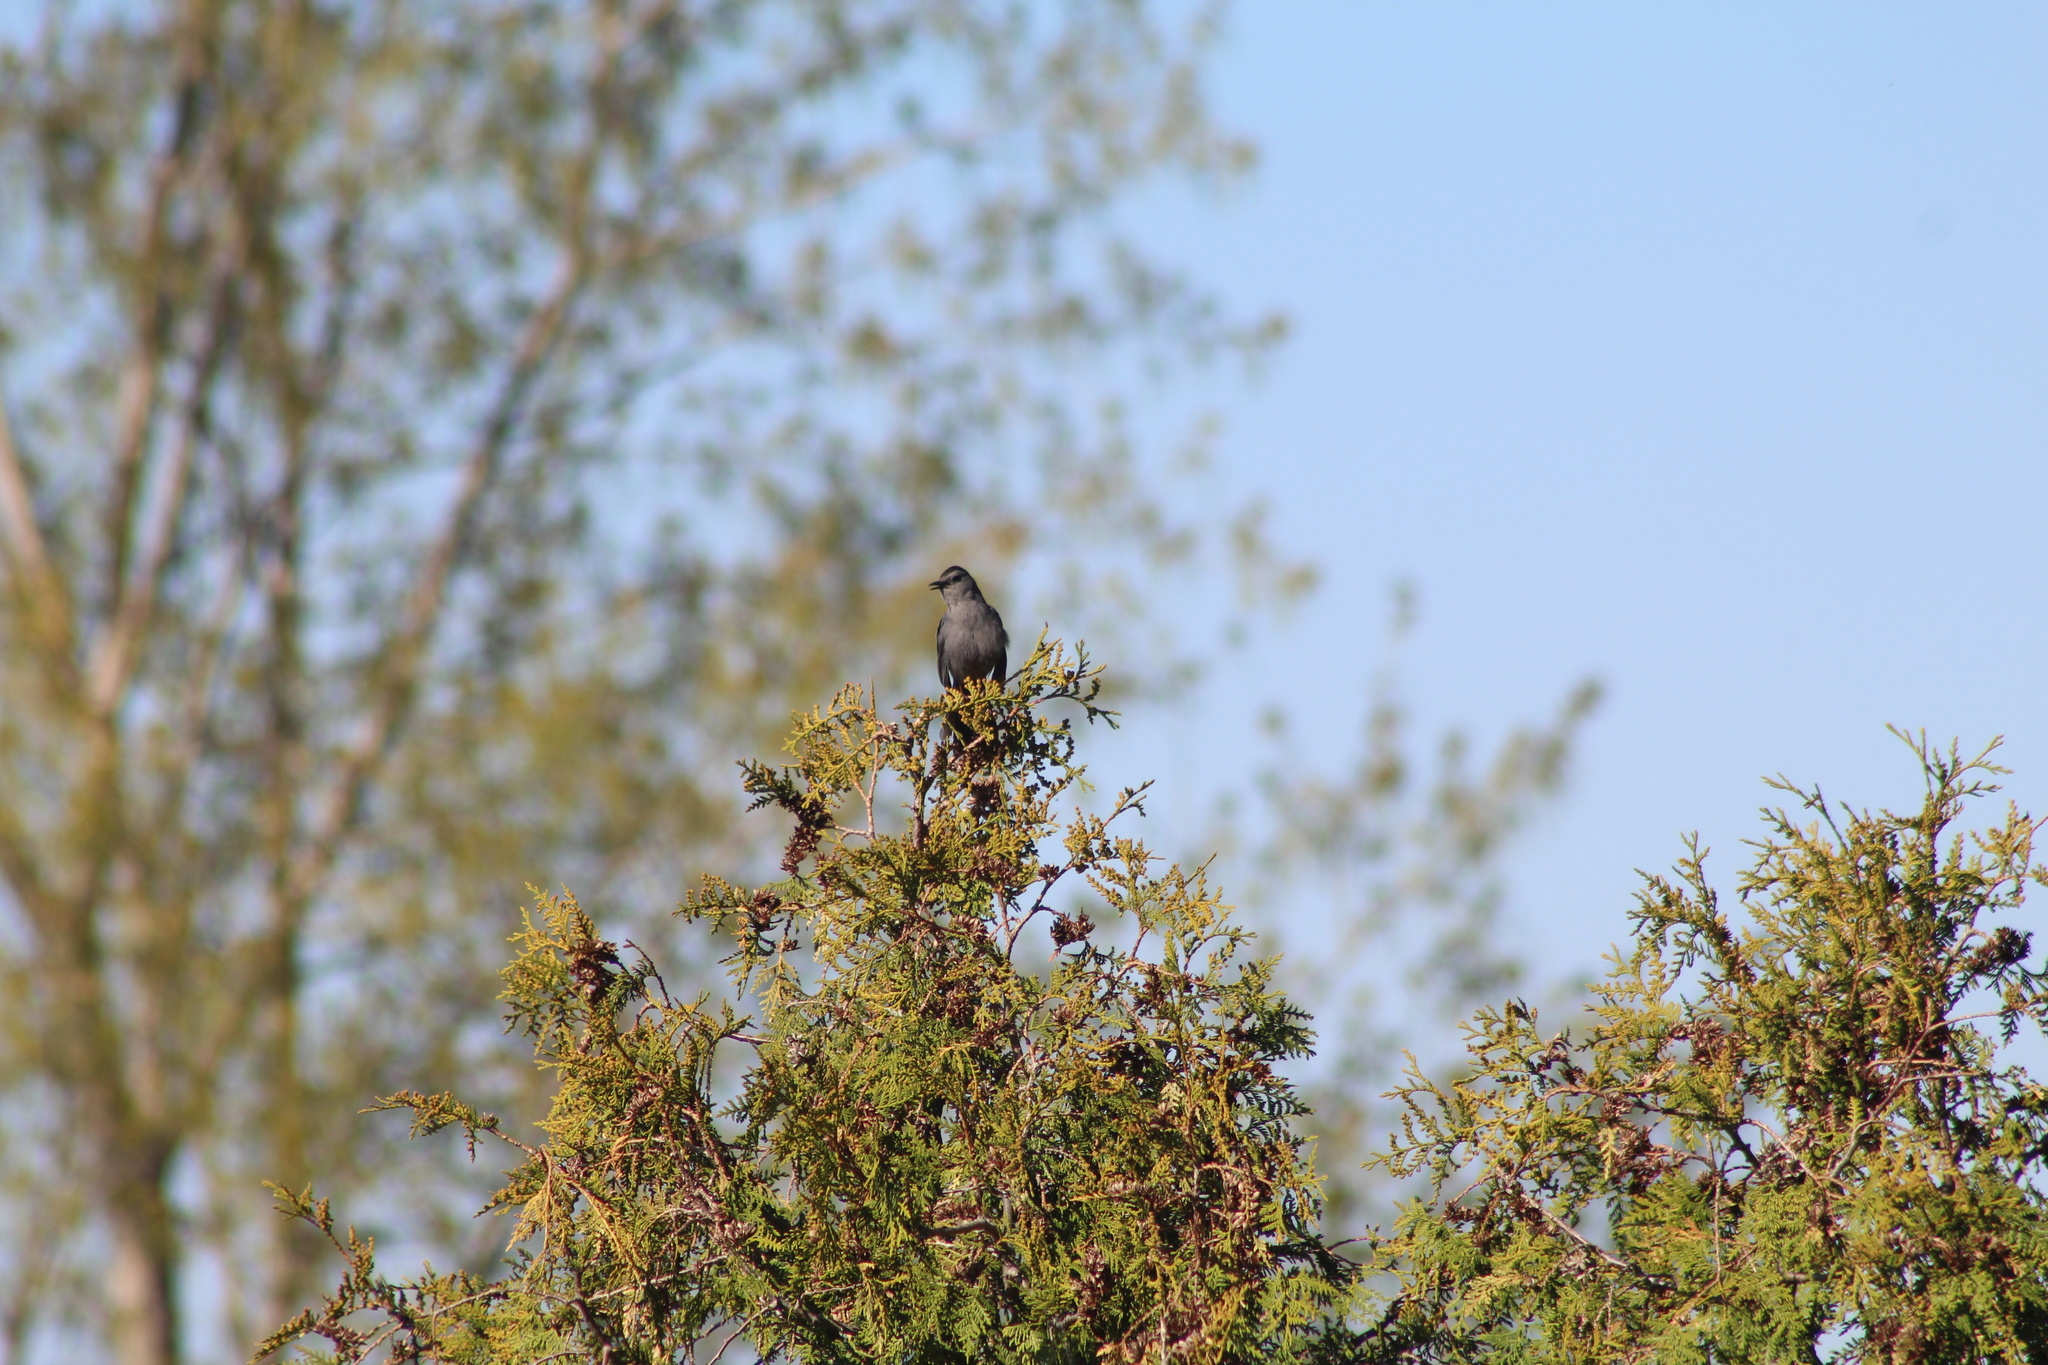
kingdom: Animalia
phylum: Chordata
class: Aves
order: Passeriformes
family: Mimidae
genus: Dumetella
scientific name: Dumetella carolinensis
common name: Gray catbird
